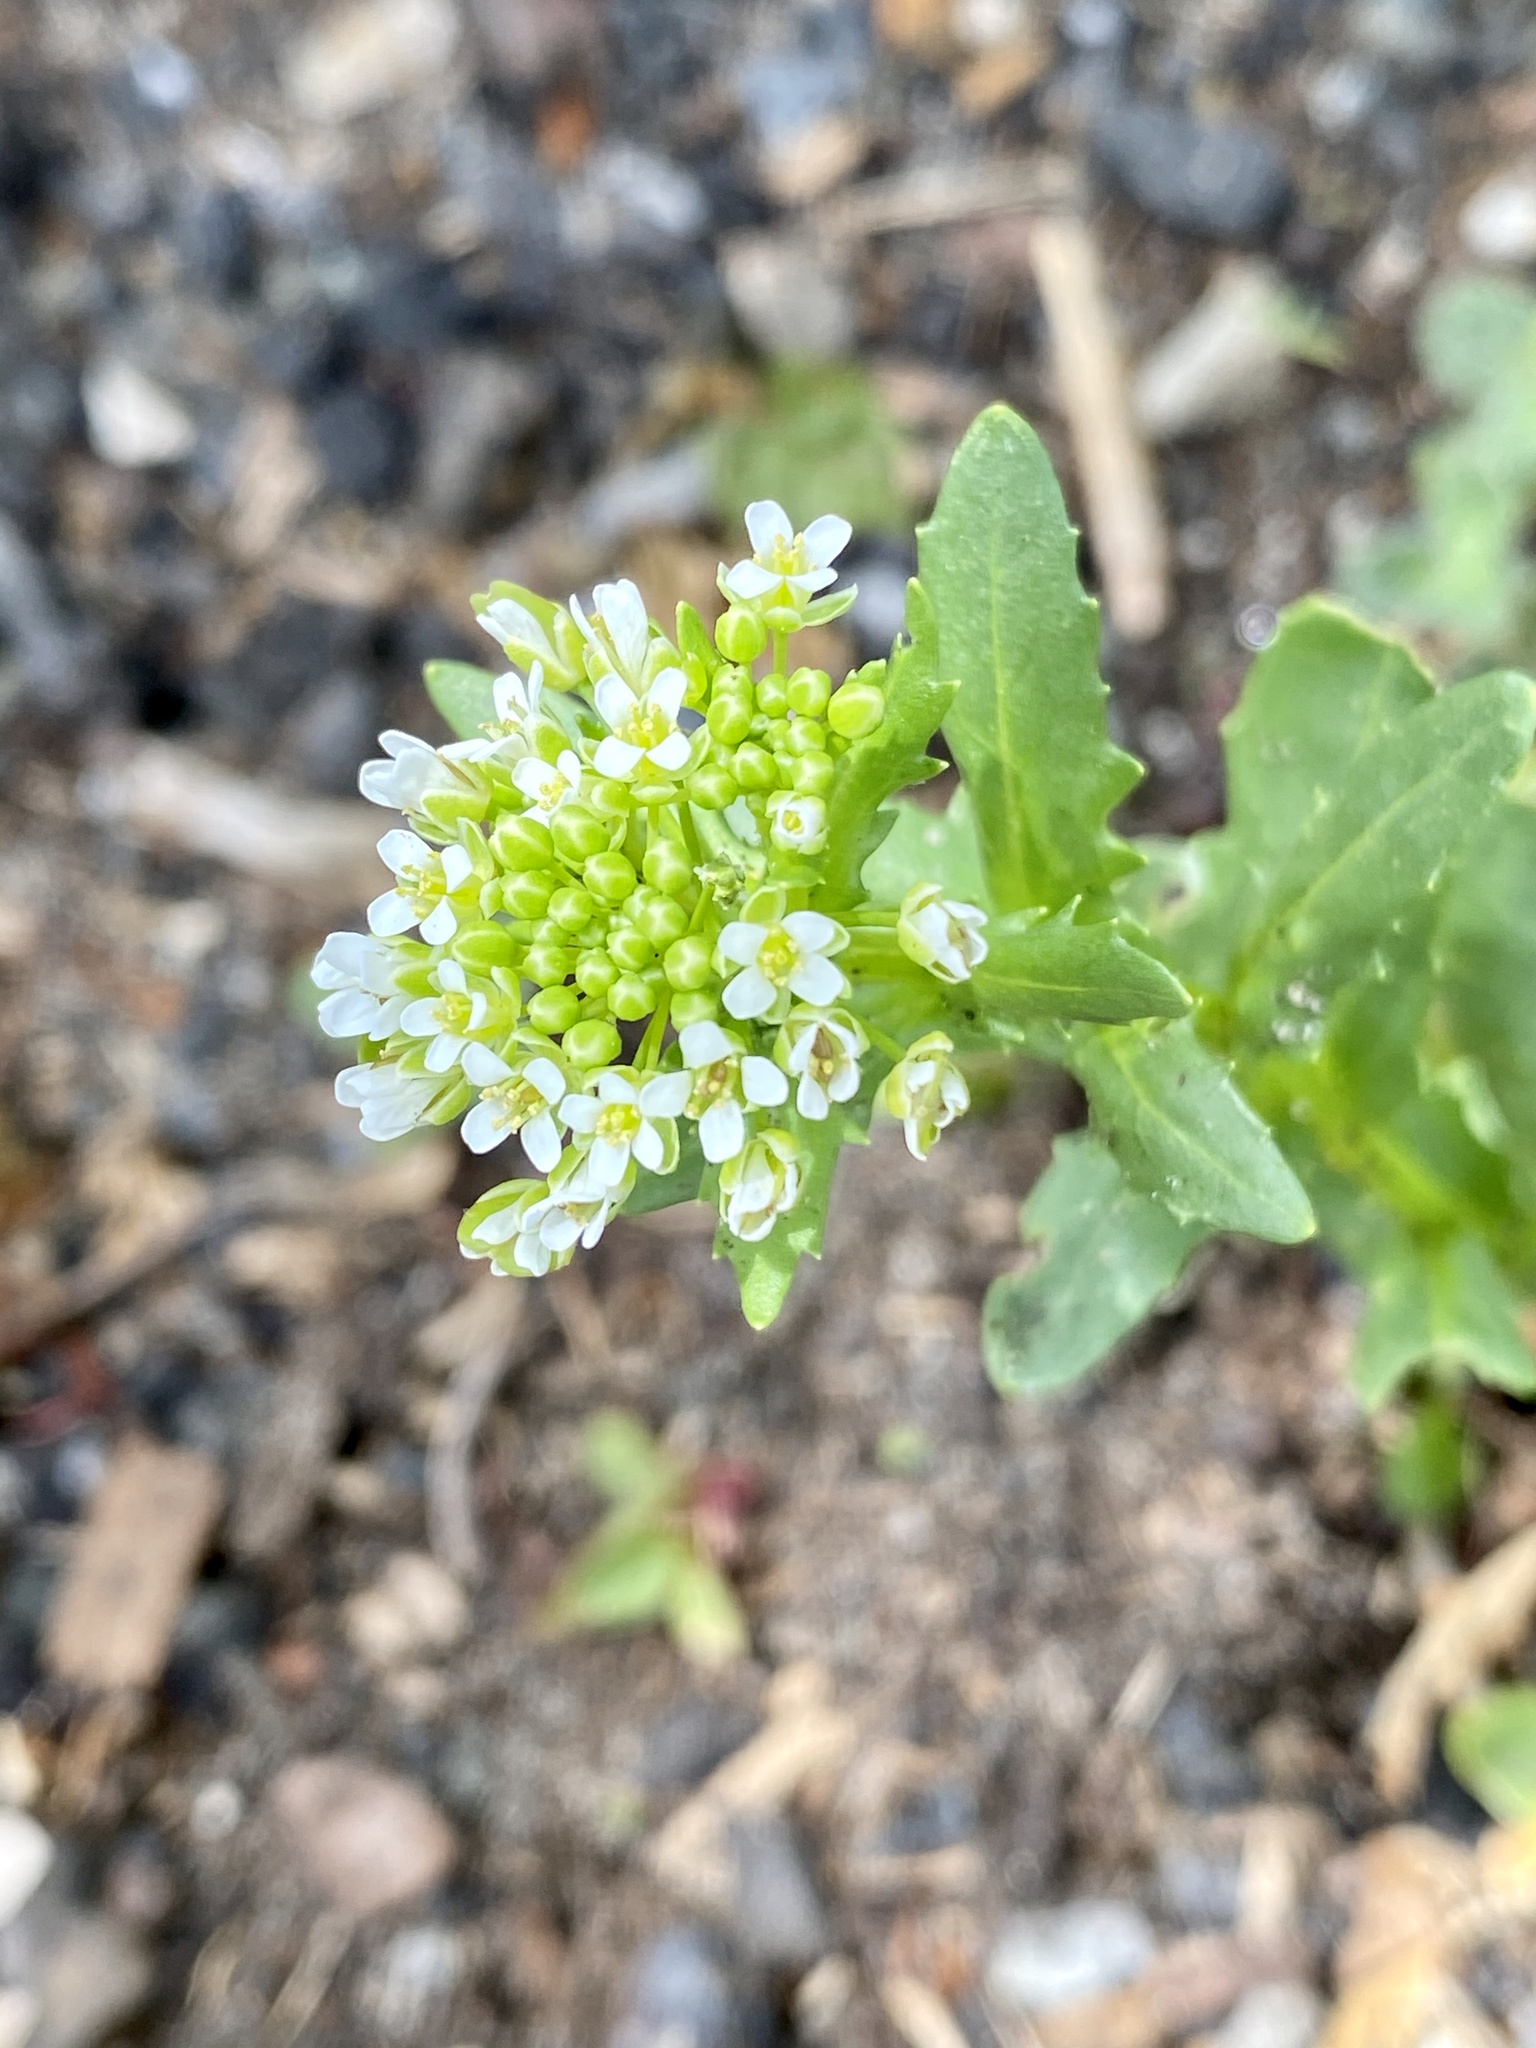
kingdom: Plantae
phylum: Tracheophyta
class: Magnoliopsida
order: Brassicales
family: Brassicaceae
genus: Thlaspi
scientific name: Thlaspi arvense
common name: Field pennycress
